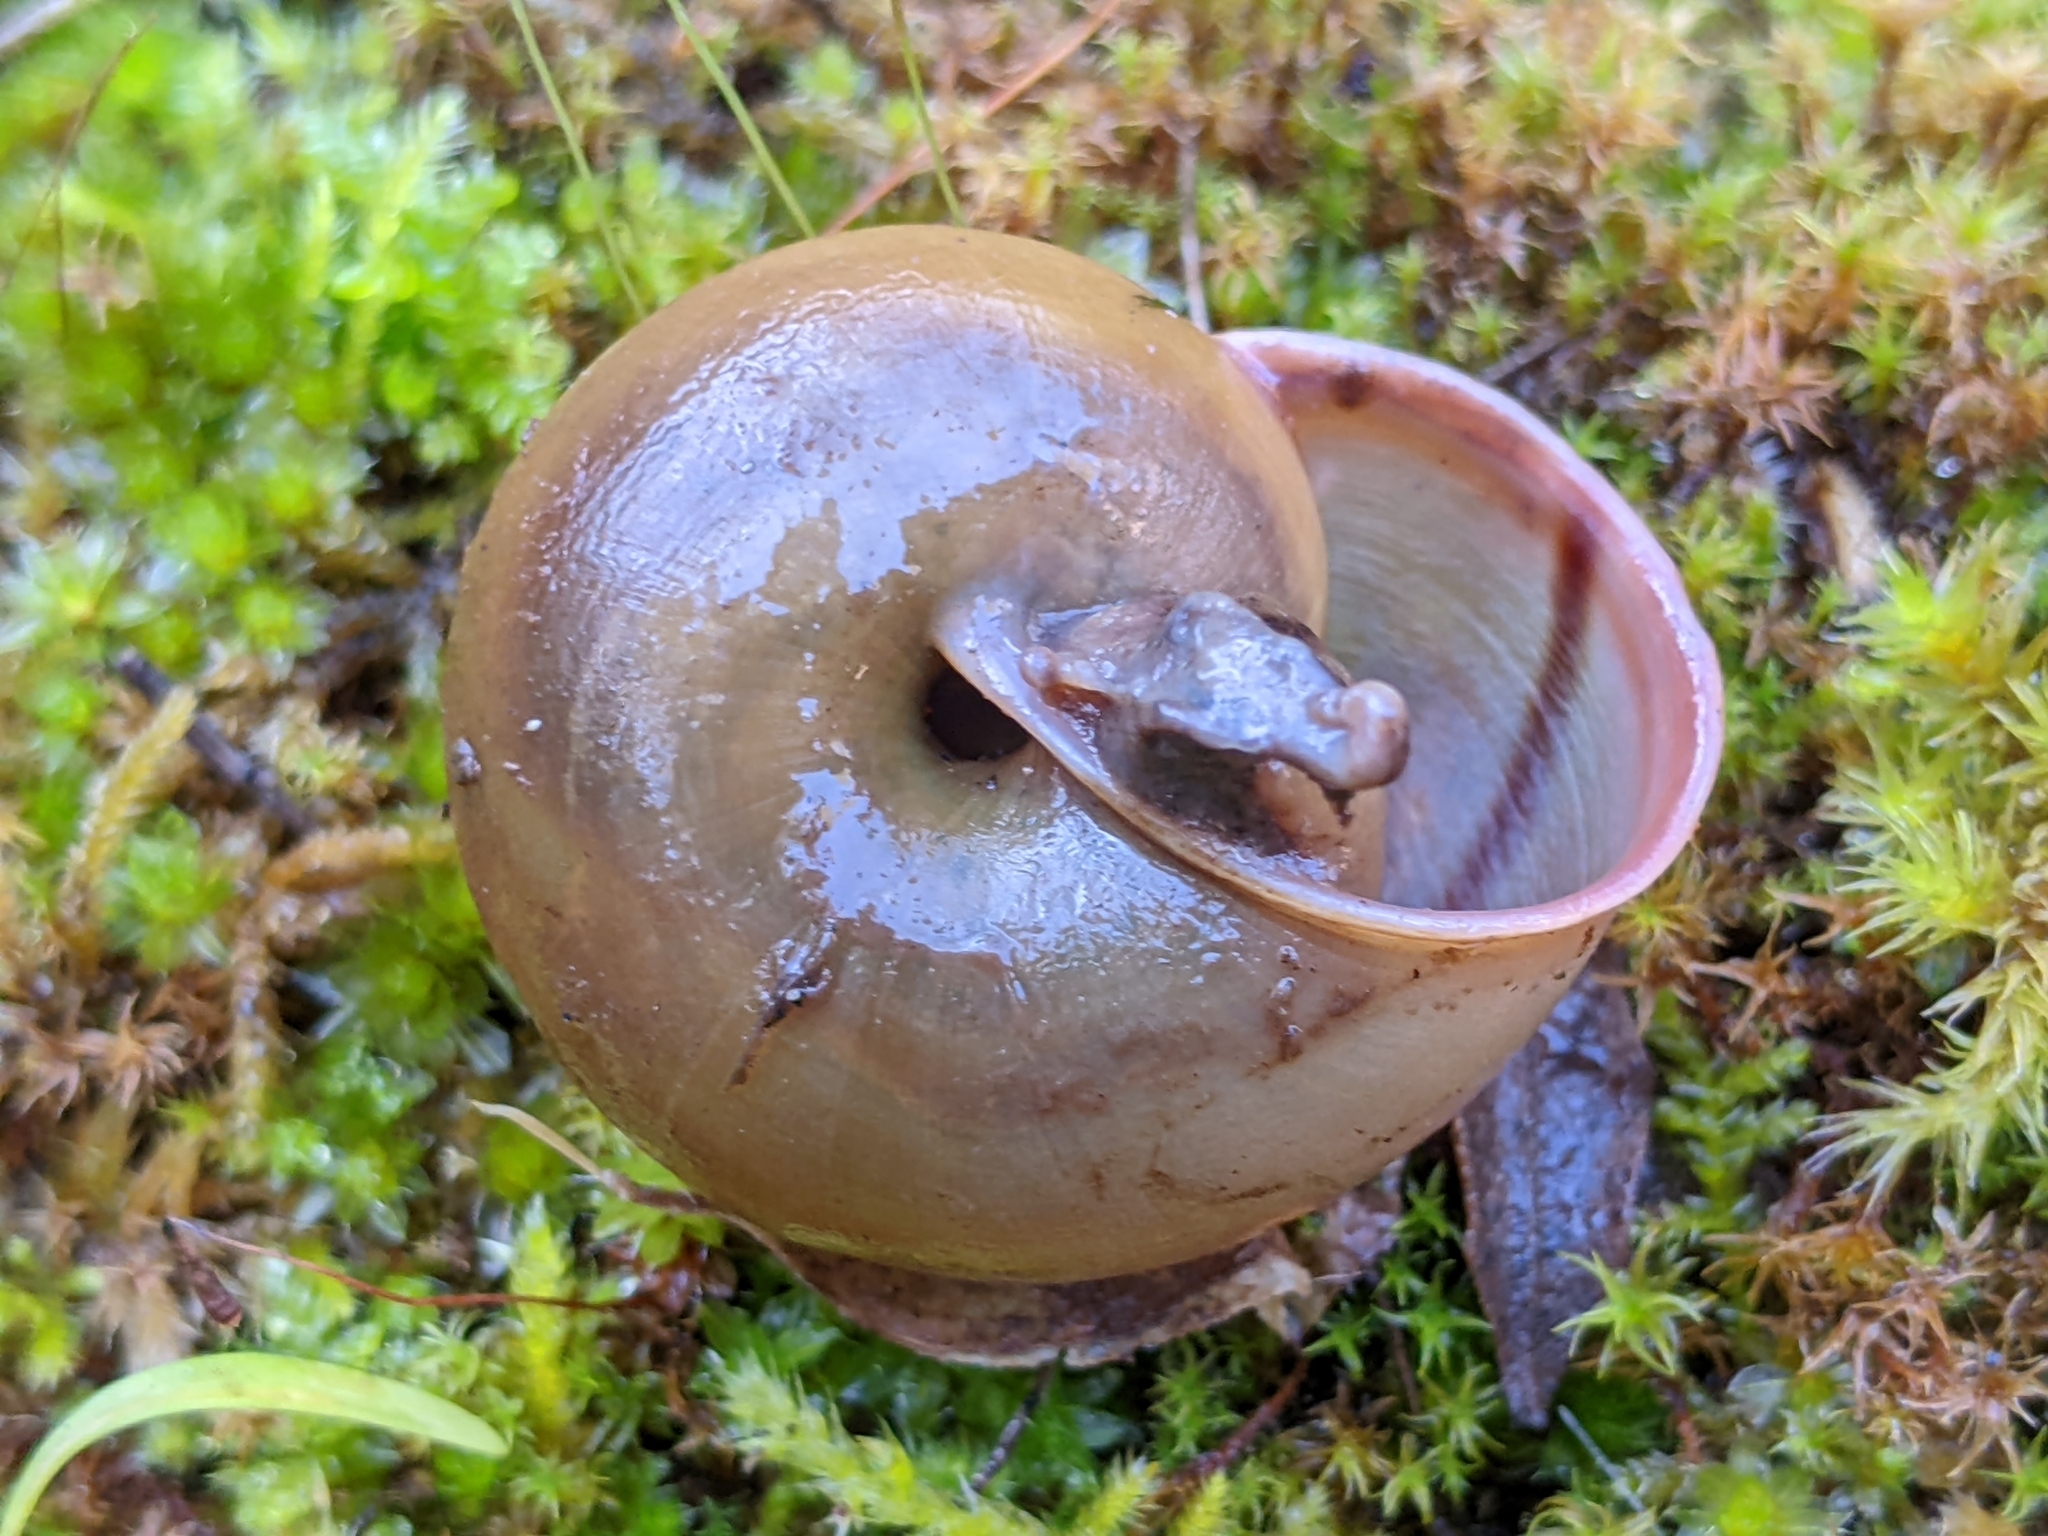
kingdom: Animalia
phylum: Mollusca
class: Gastropoda
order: Stylommatophora
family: Xanthonychidae
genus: Helminthoglypta
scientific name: Helminthoglypta cypreophila
